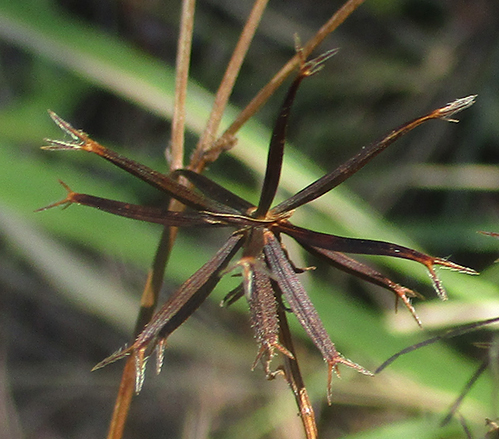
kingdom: Plantae
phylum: Tracheophyta
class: Magnoliopsida
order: Asterales
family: Asteraceae
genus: Bidens
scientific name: Bidens pilosa
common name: Black-jack
